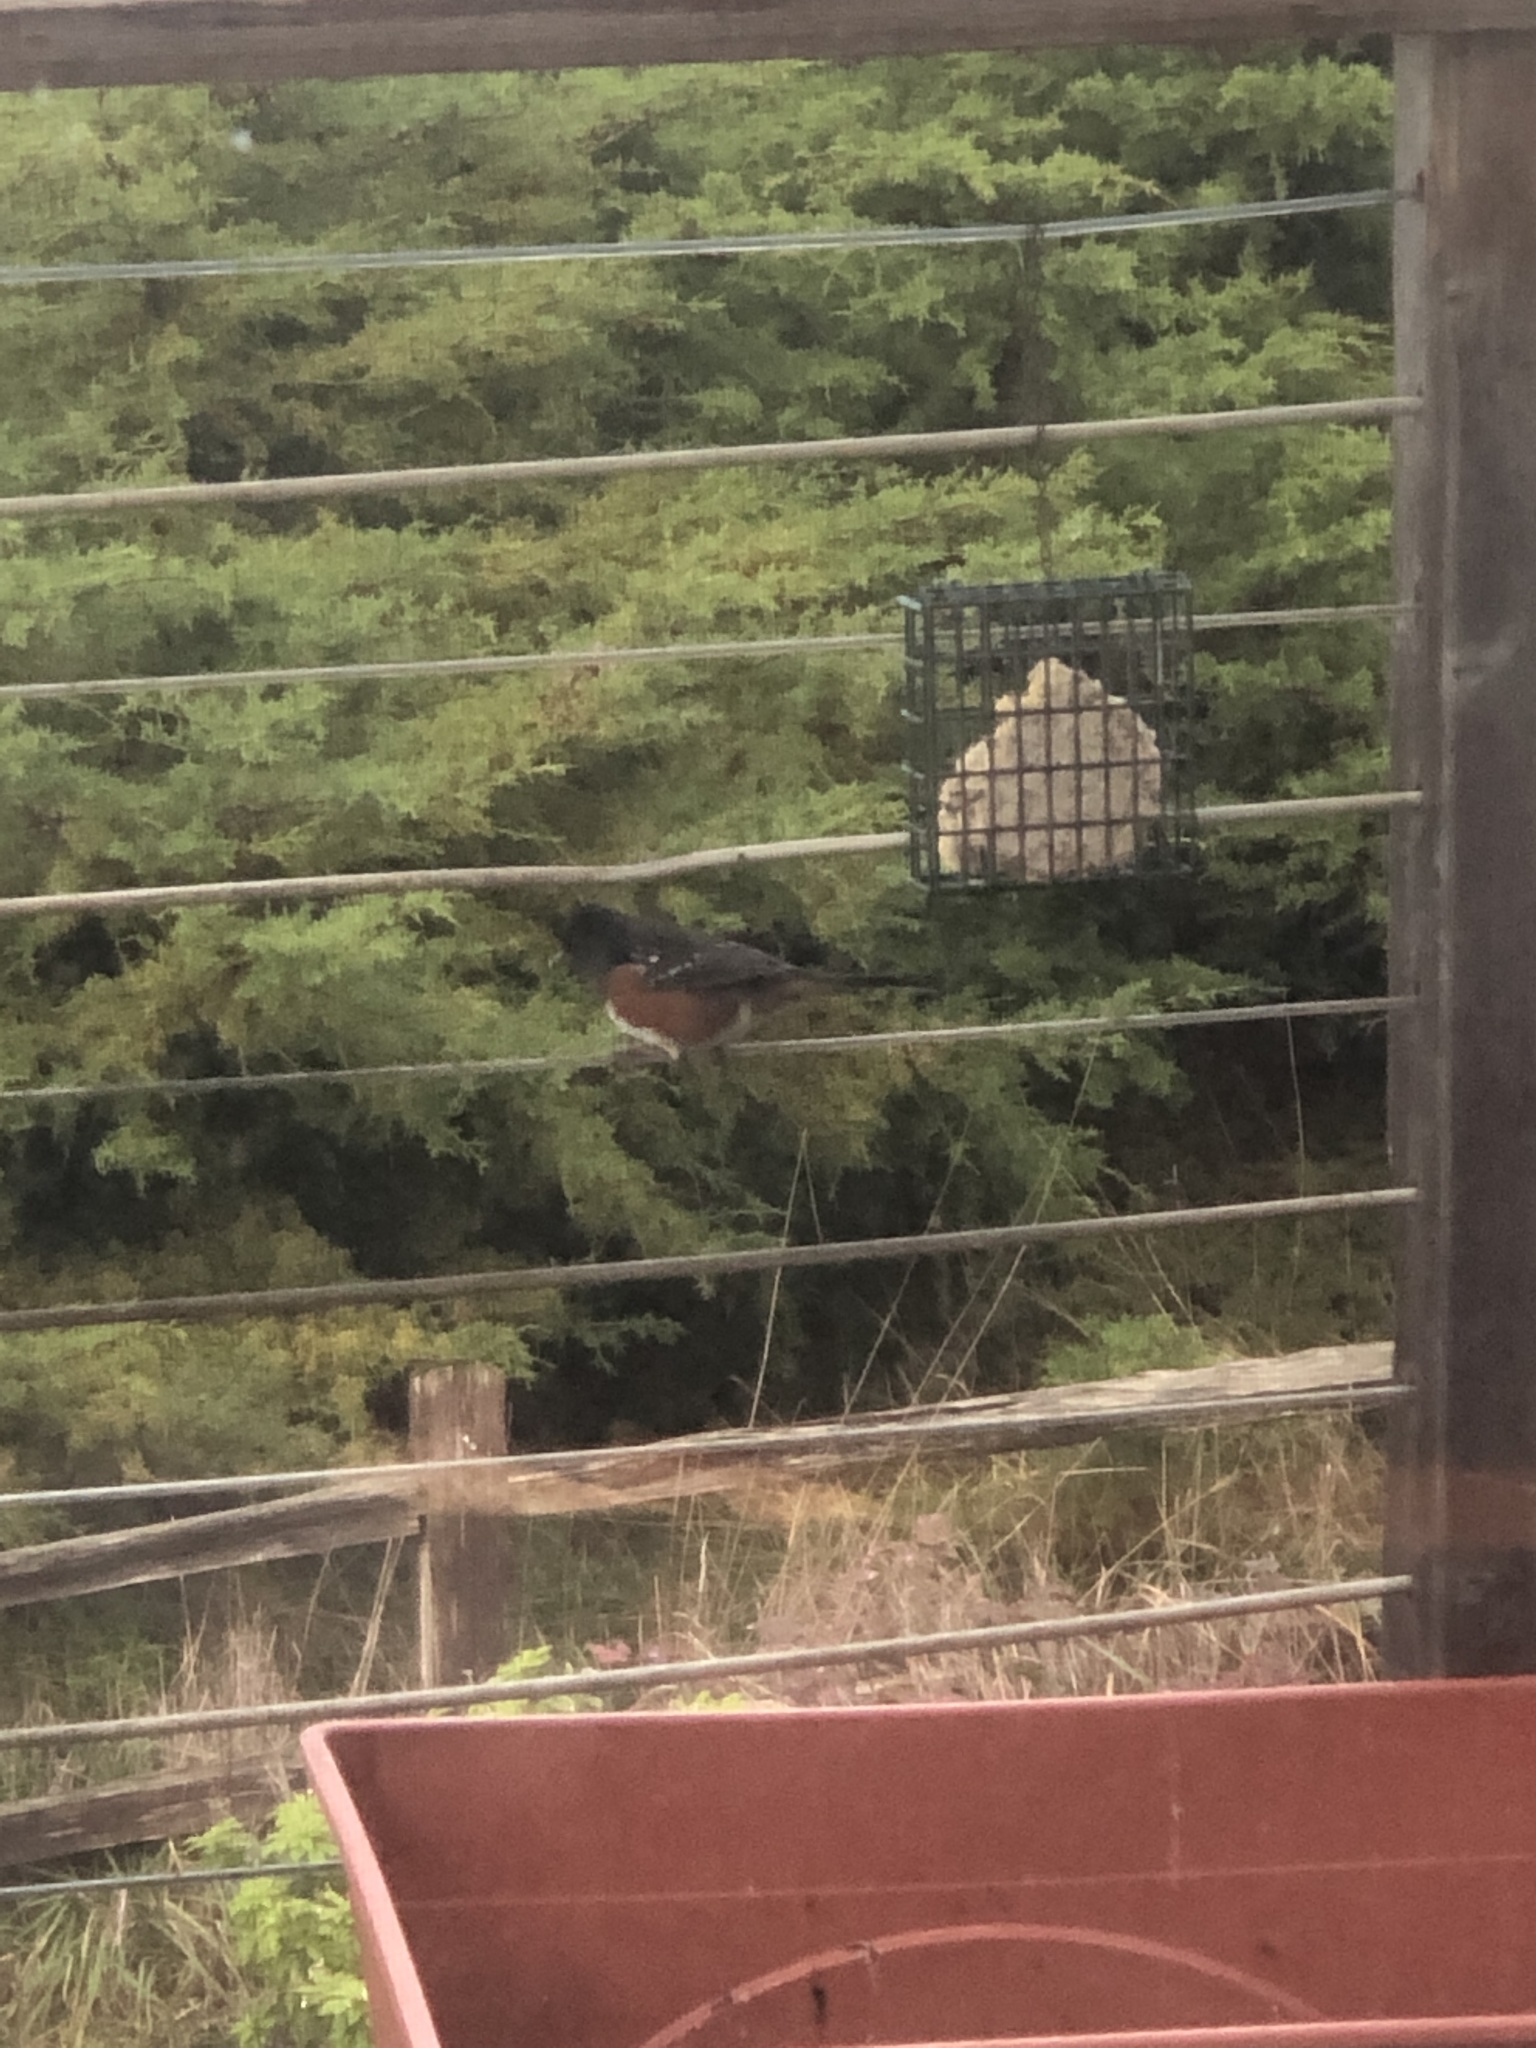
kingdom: Animalia
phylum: Chordata
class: Aves
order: Passeriformes
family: Passerellidae
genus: Pipilo
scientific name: Pipilo maculatus
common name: Spotted towhee
